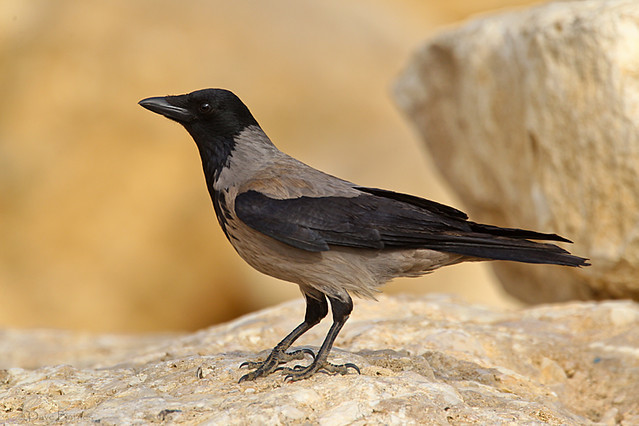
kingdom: Animalia
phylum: Chordata
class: Aves
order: Passeriformes
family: Corvidae
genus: Corvus
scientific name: Corvus cornix
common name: Hooded crow
